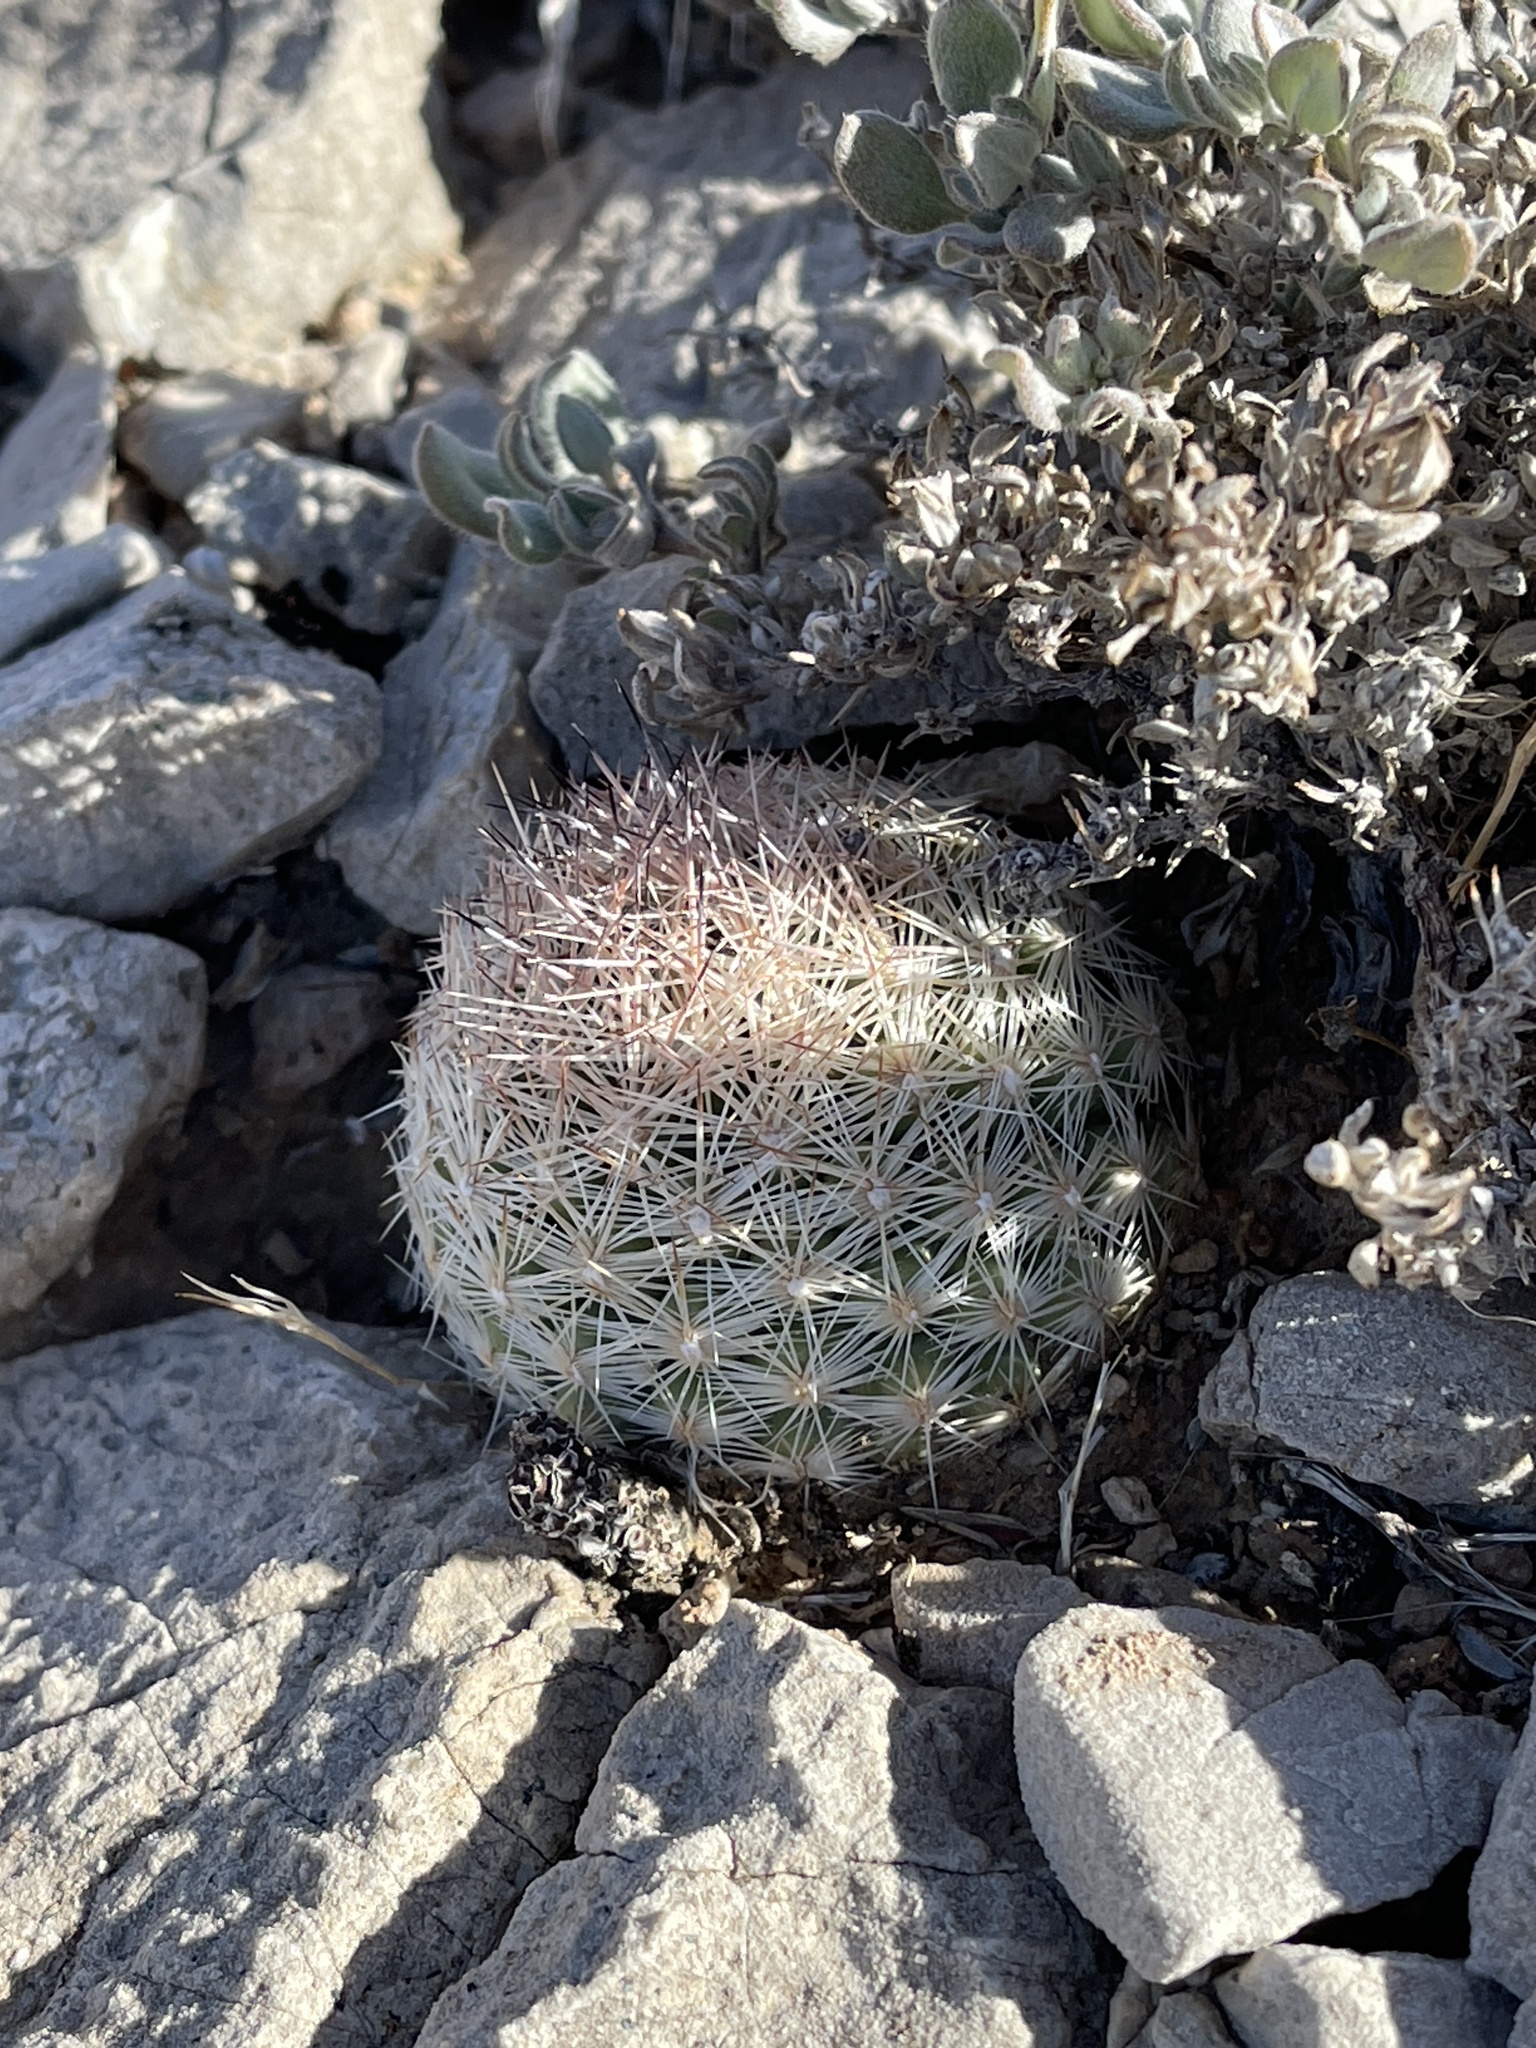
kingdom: Plantae
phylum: Tracheophyta
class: Magnoliopsida
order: Caryophyllales
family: Cactaceae
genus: Pelecyphora
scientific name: Pelecyphora dasyacantha
